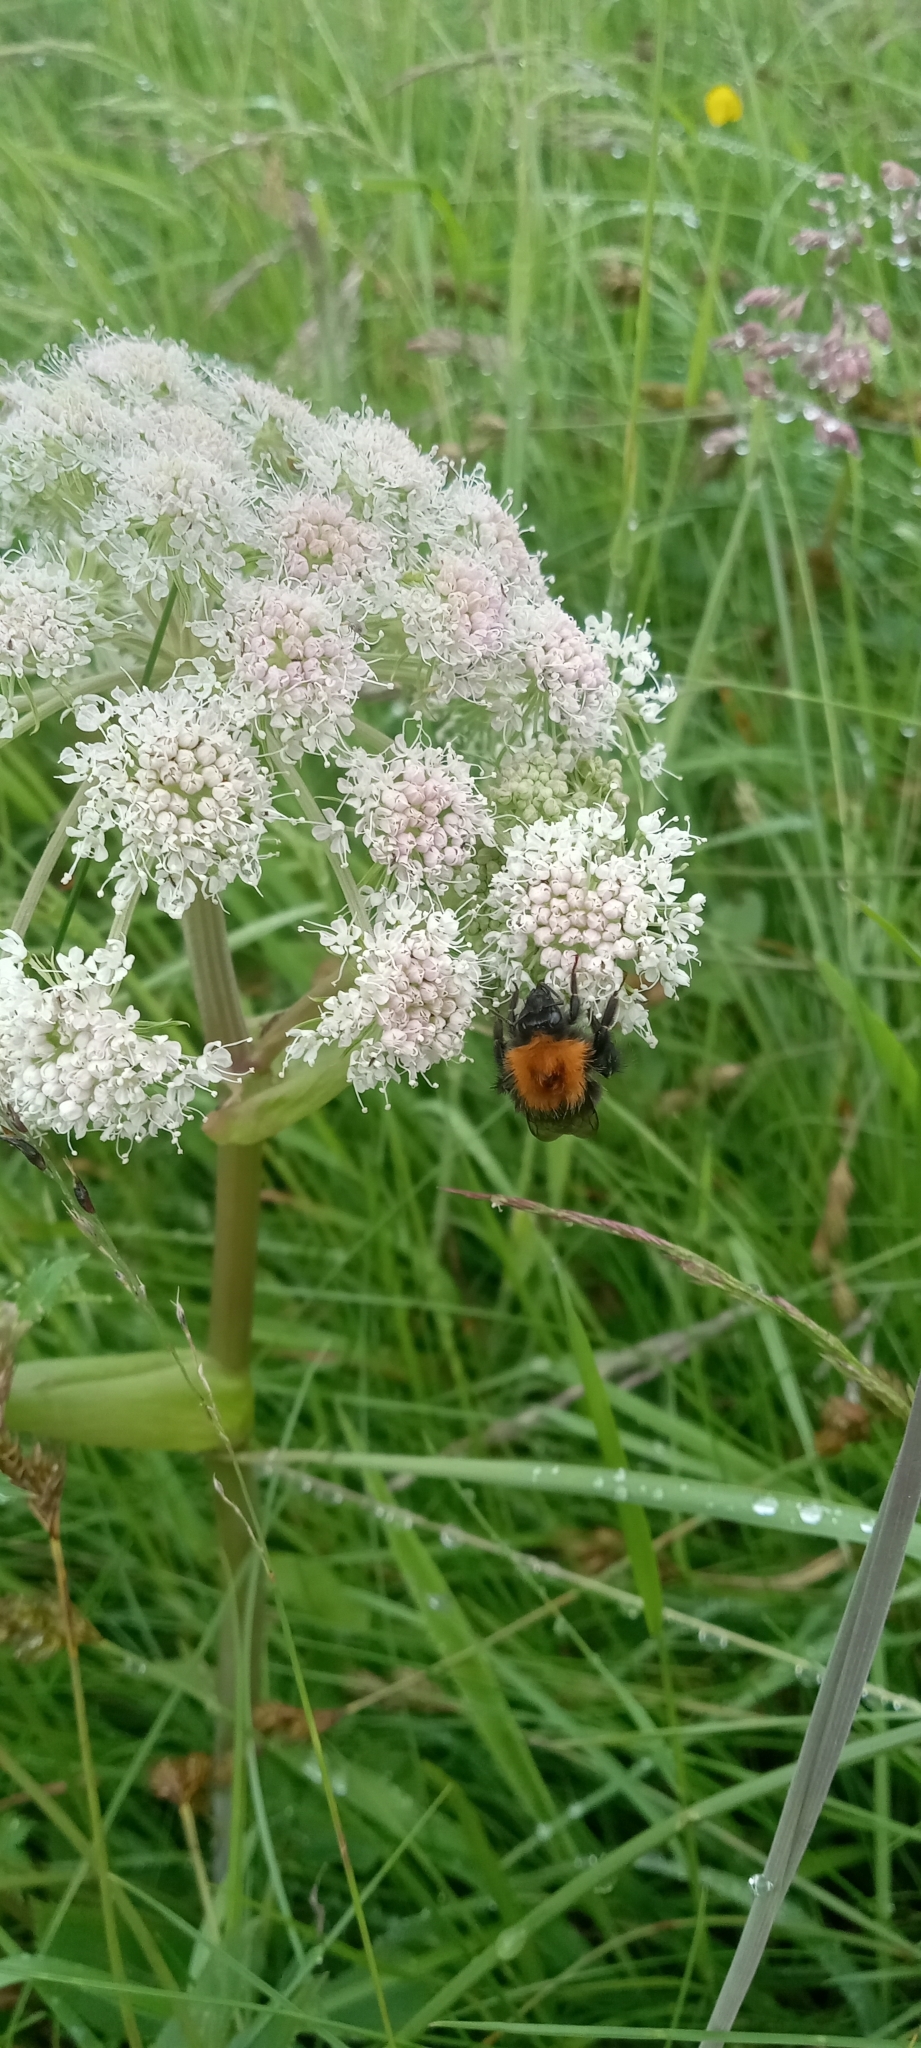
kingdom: Animalia
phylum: Arthropoda
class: Insecta
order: Hymenoptera
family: Apidae
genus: Bombus
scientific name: Bombus hypnorum
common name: New garden bumblebee
